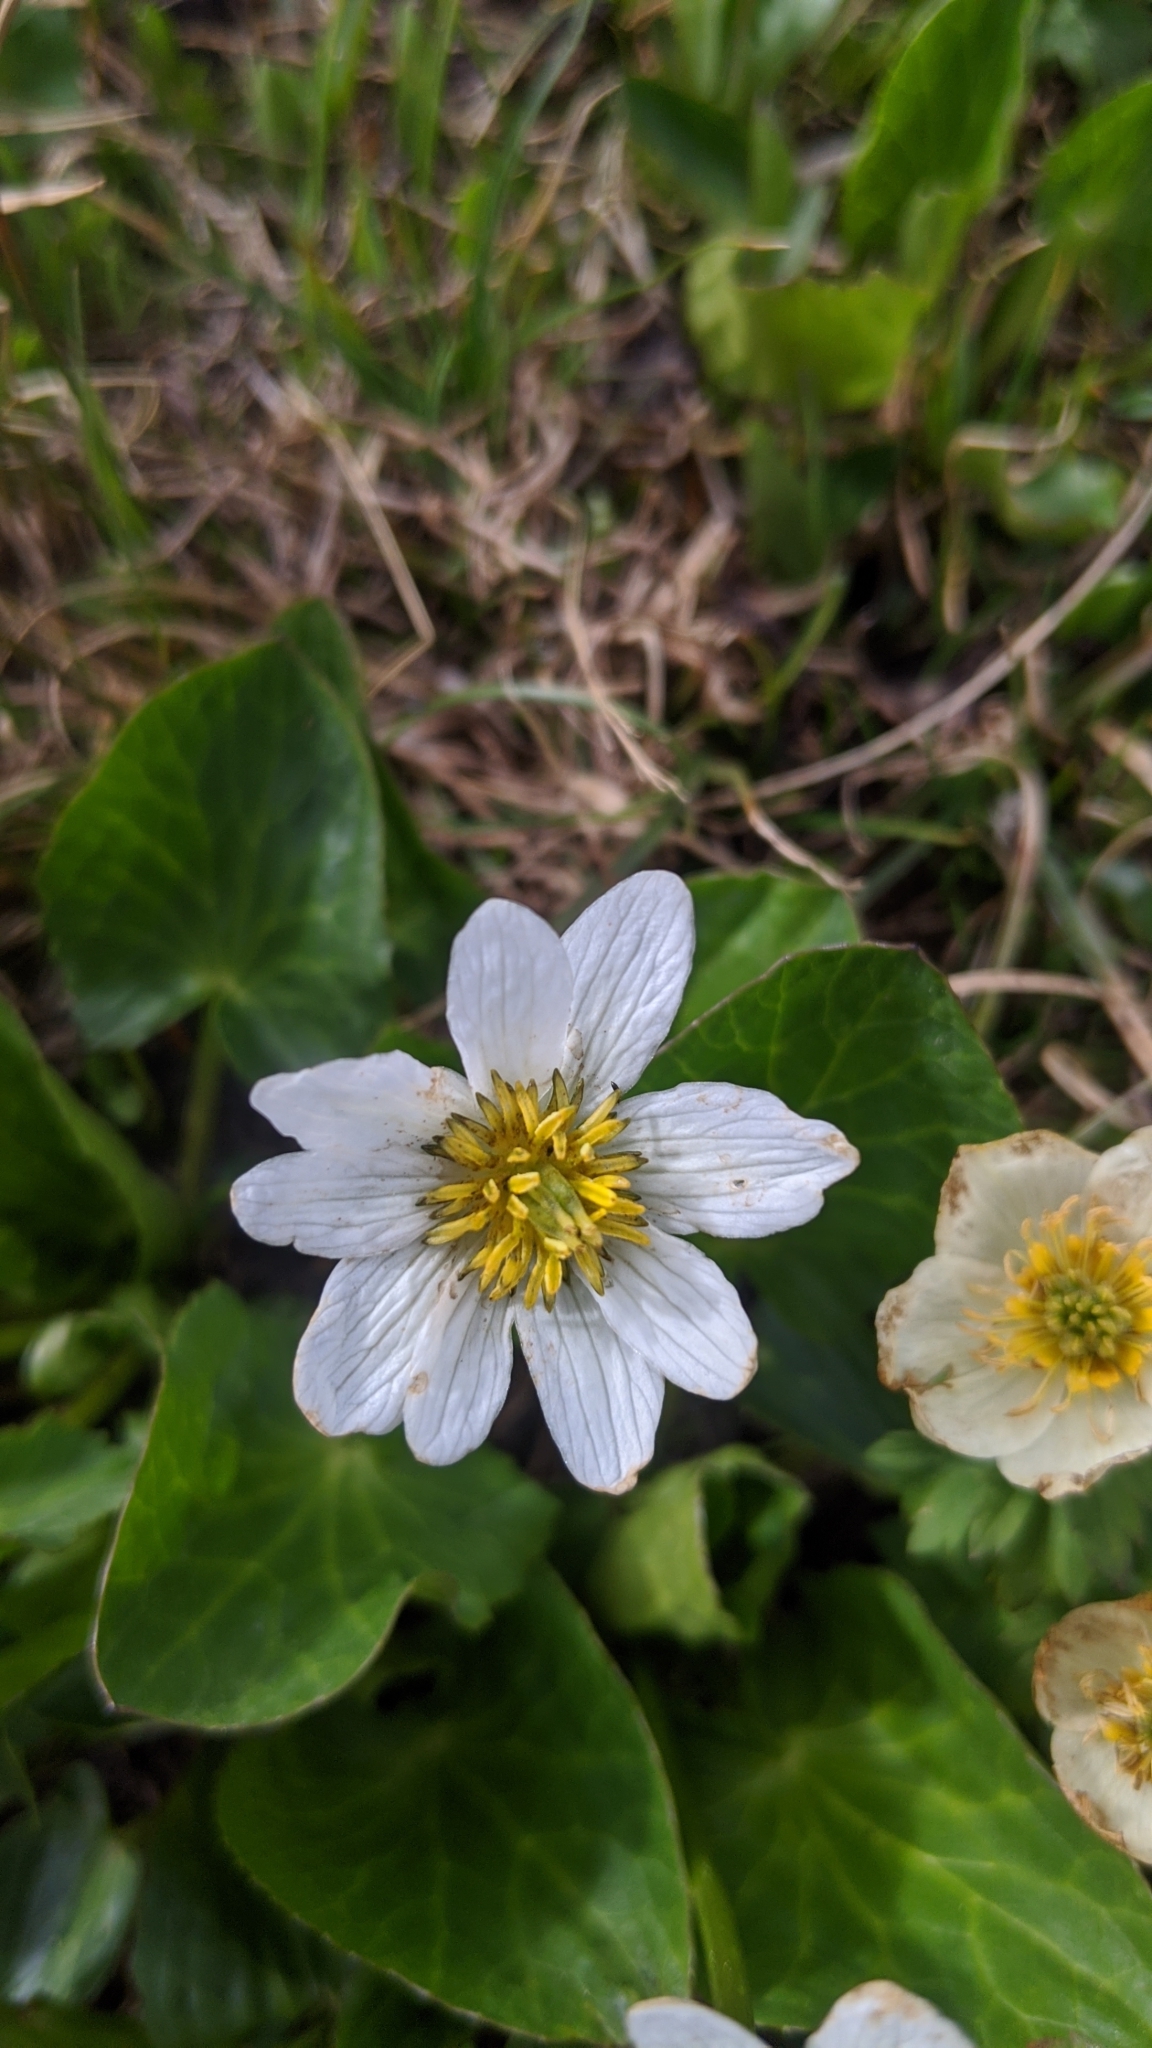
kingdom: Plantae
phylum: Tracheophyta
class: Magnoliopsida
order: Ranunculales
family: Ranunculaceae
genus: Caltha
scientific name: Caltha leptosepala
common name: Elkslip
